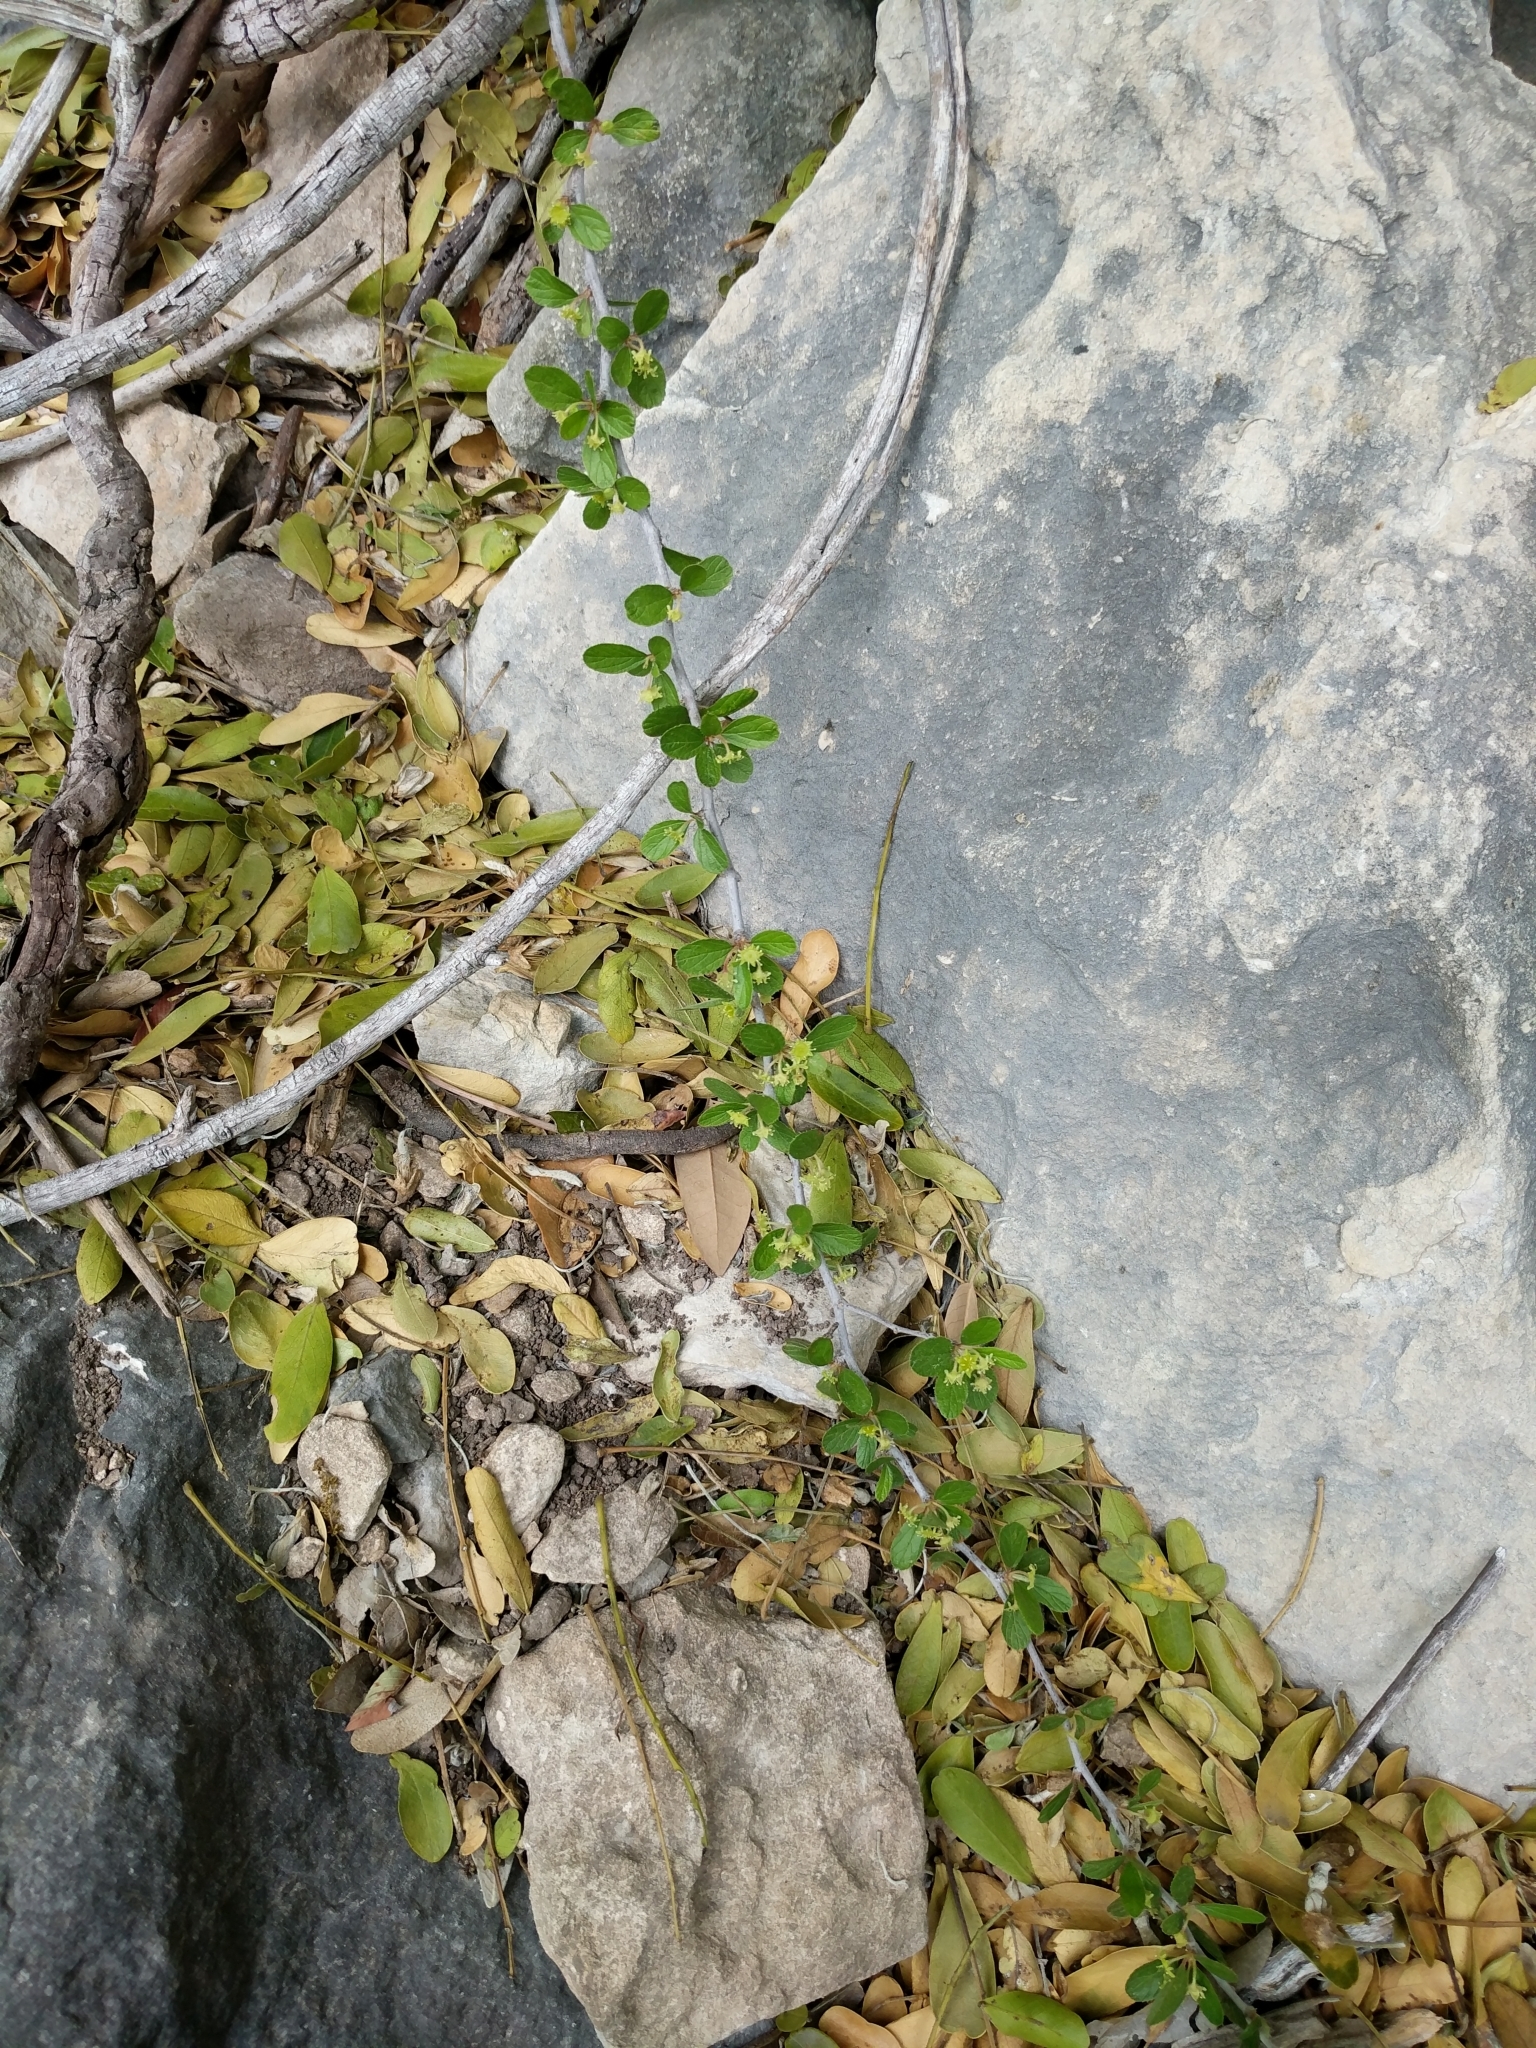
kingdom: Plantae
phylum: Tracheophyta
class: Magnoliopsida
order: Rosales
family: Rhamnaceae
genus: Colubrina
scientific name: Colubrina texensis
